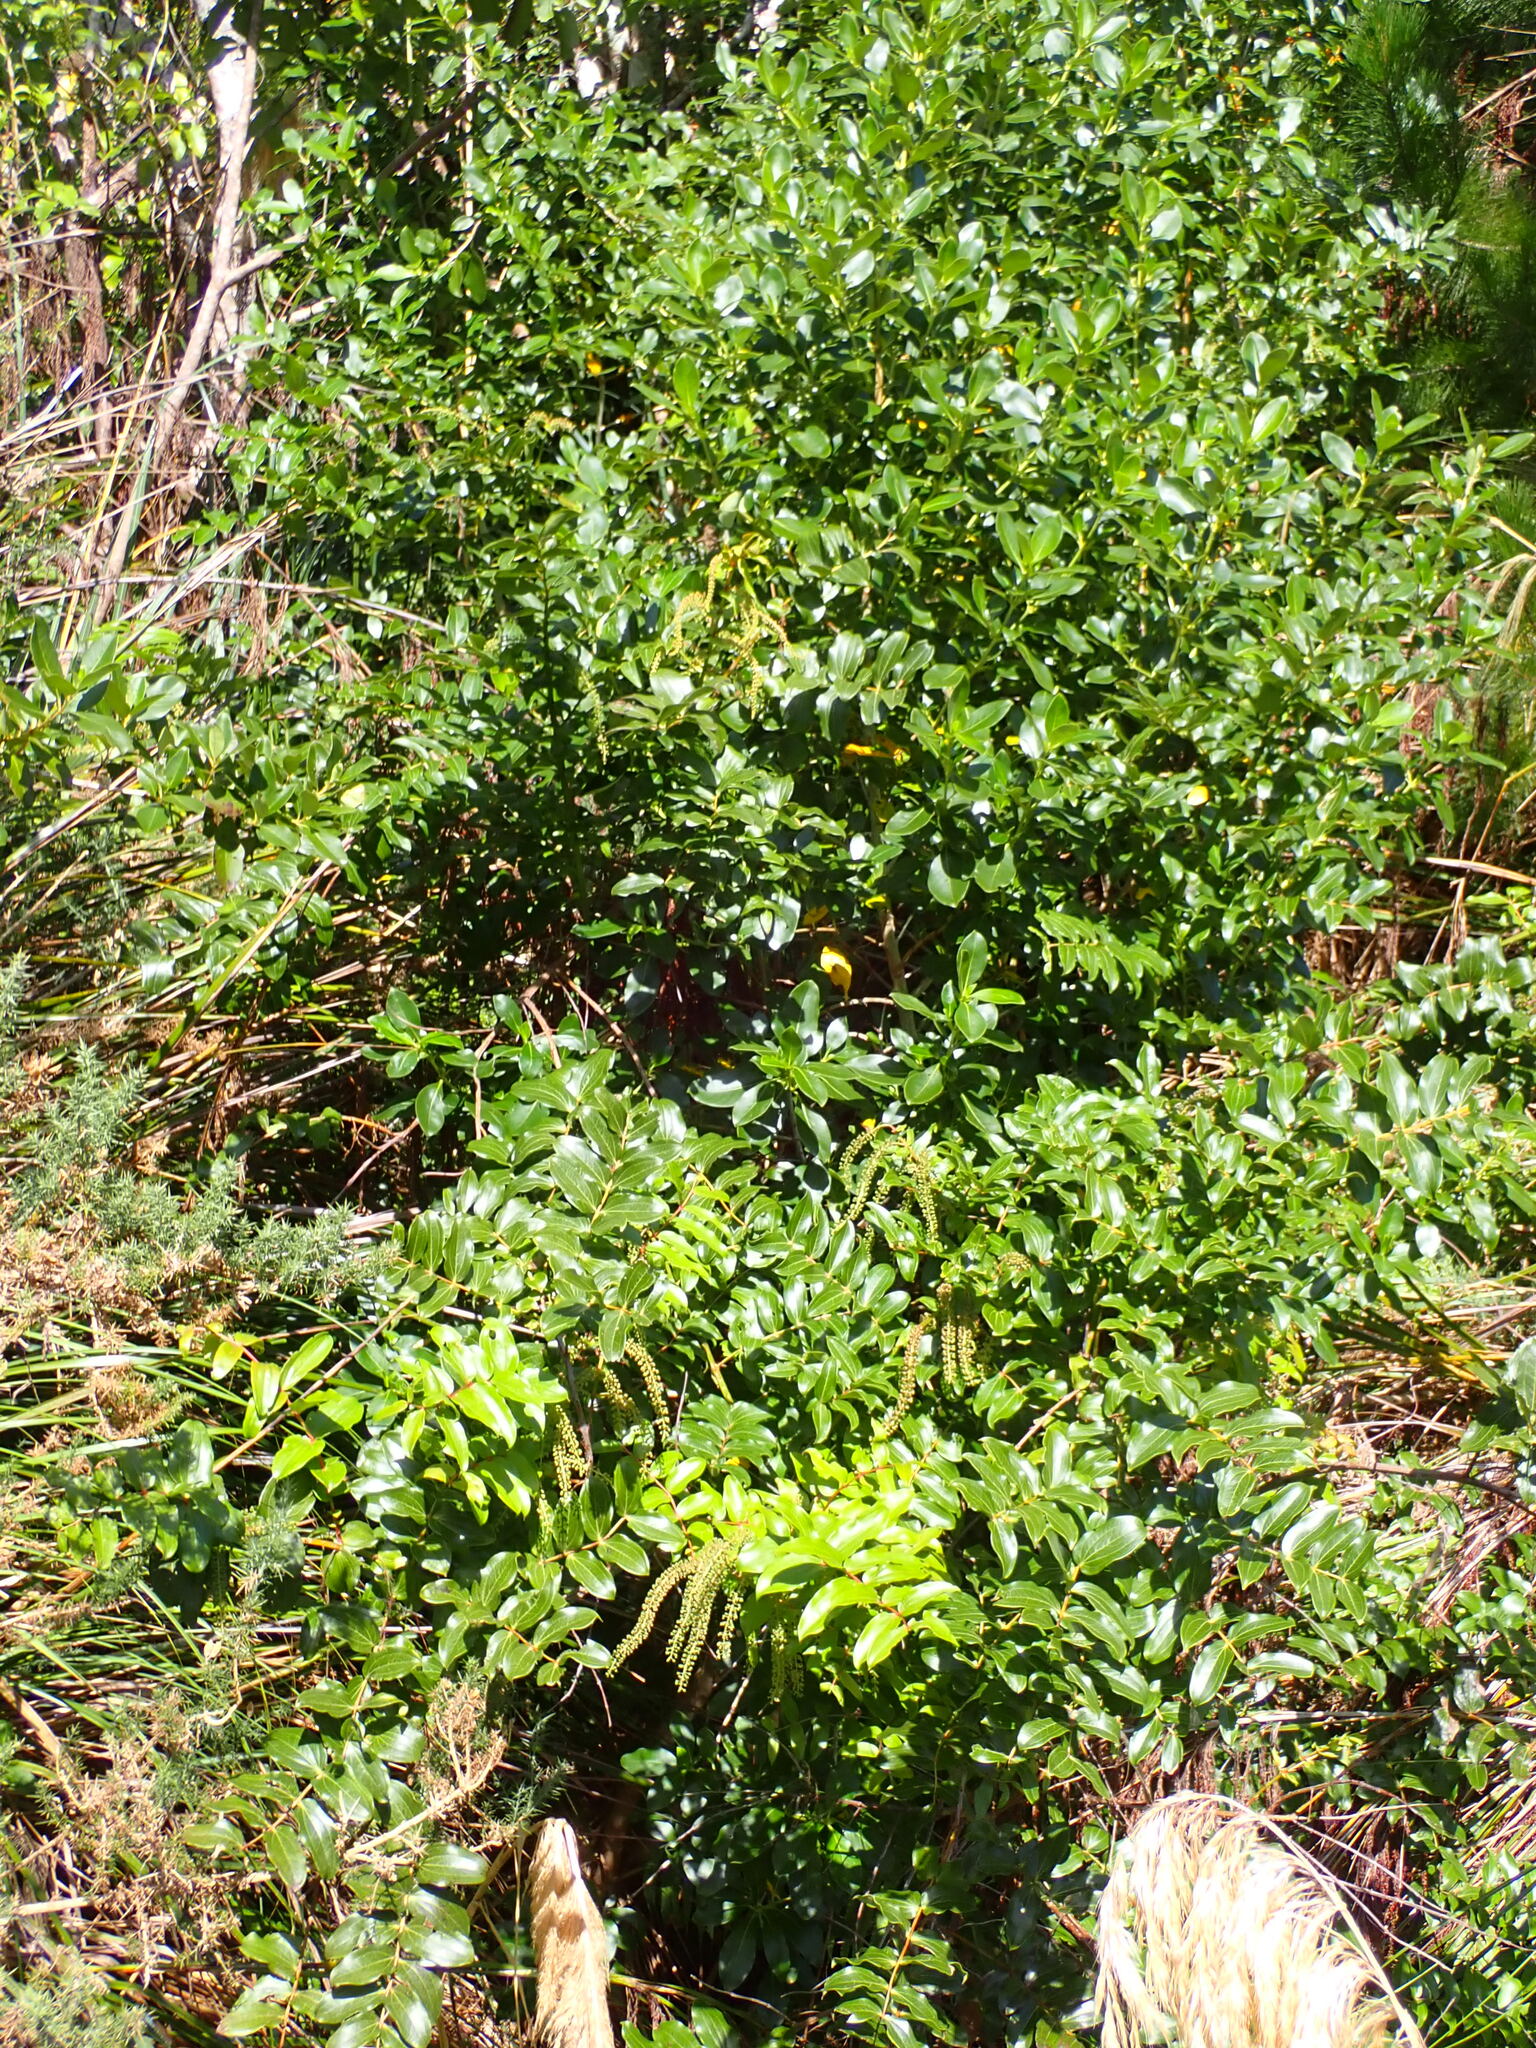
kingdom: Plantae
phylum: Tracheophyta
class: Magnoliopsida
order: Cucurbitales
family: Coriariaceae
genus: Coriaria
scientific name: Coriaria arborea
